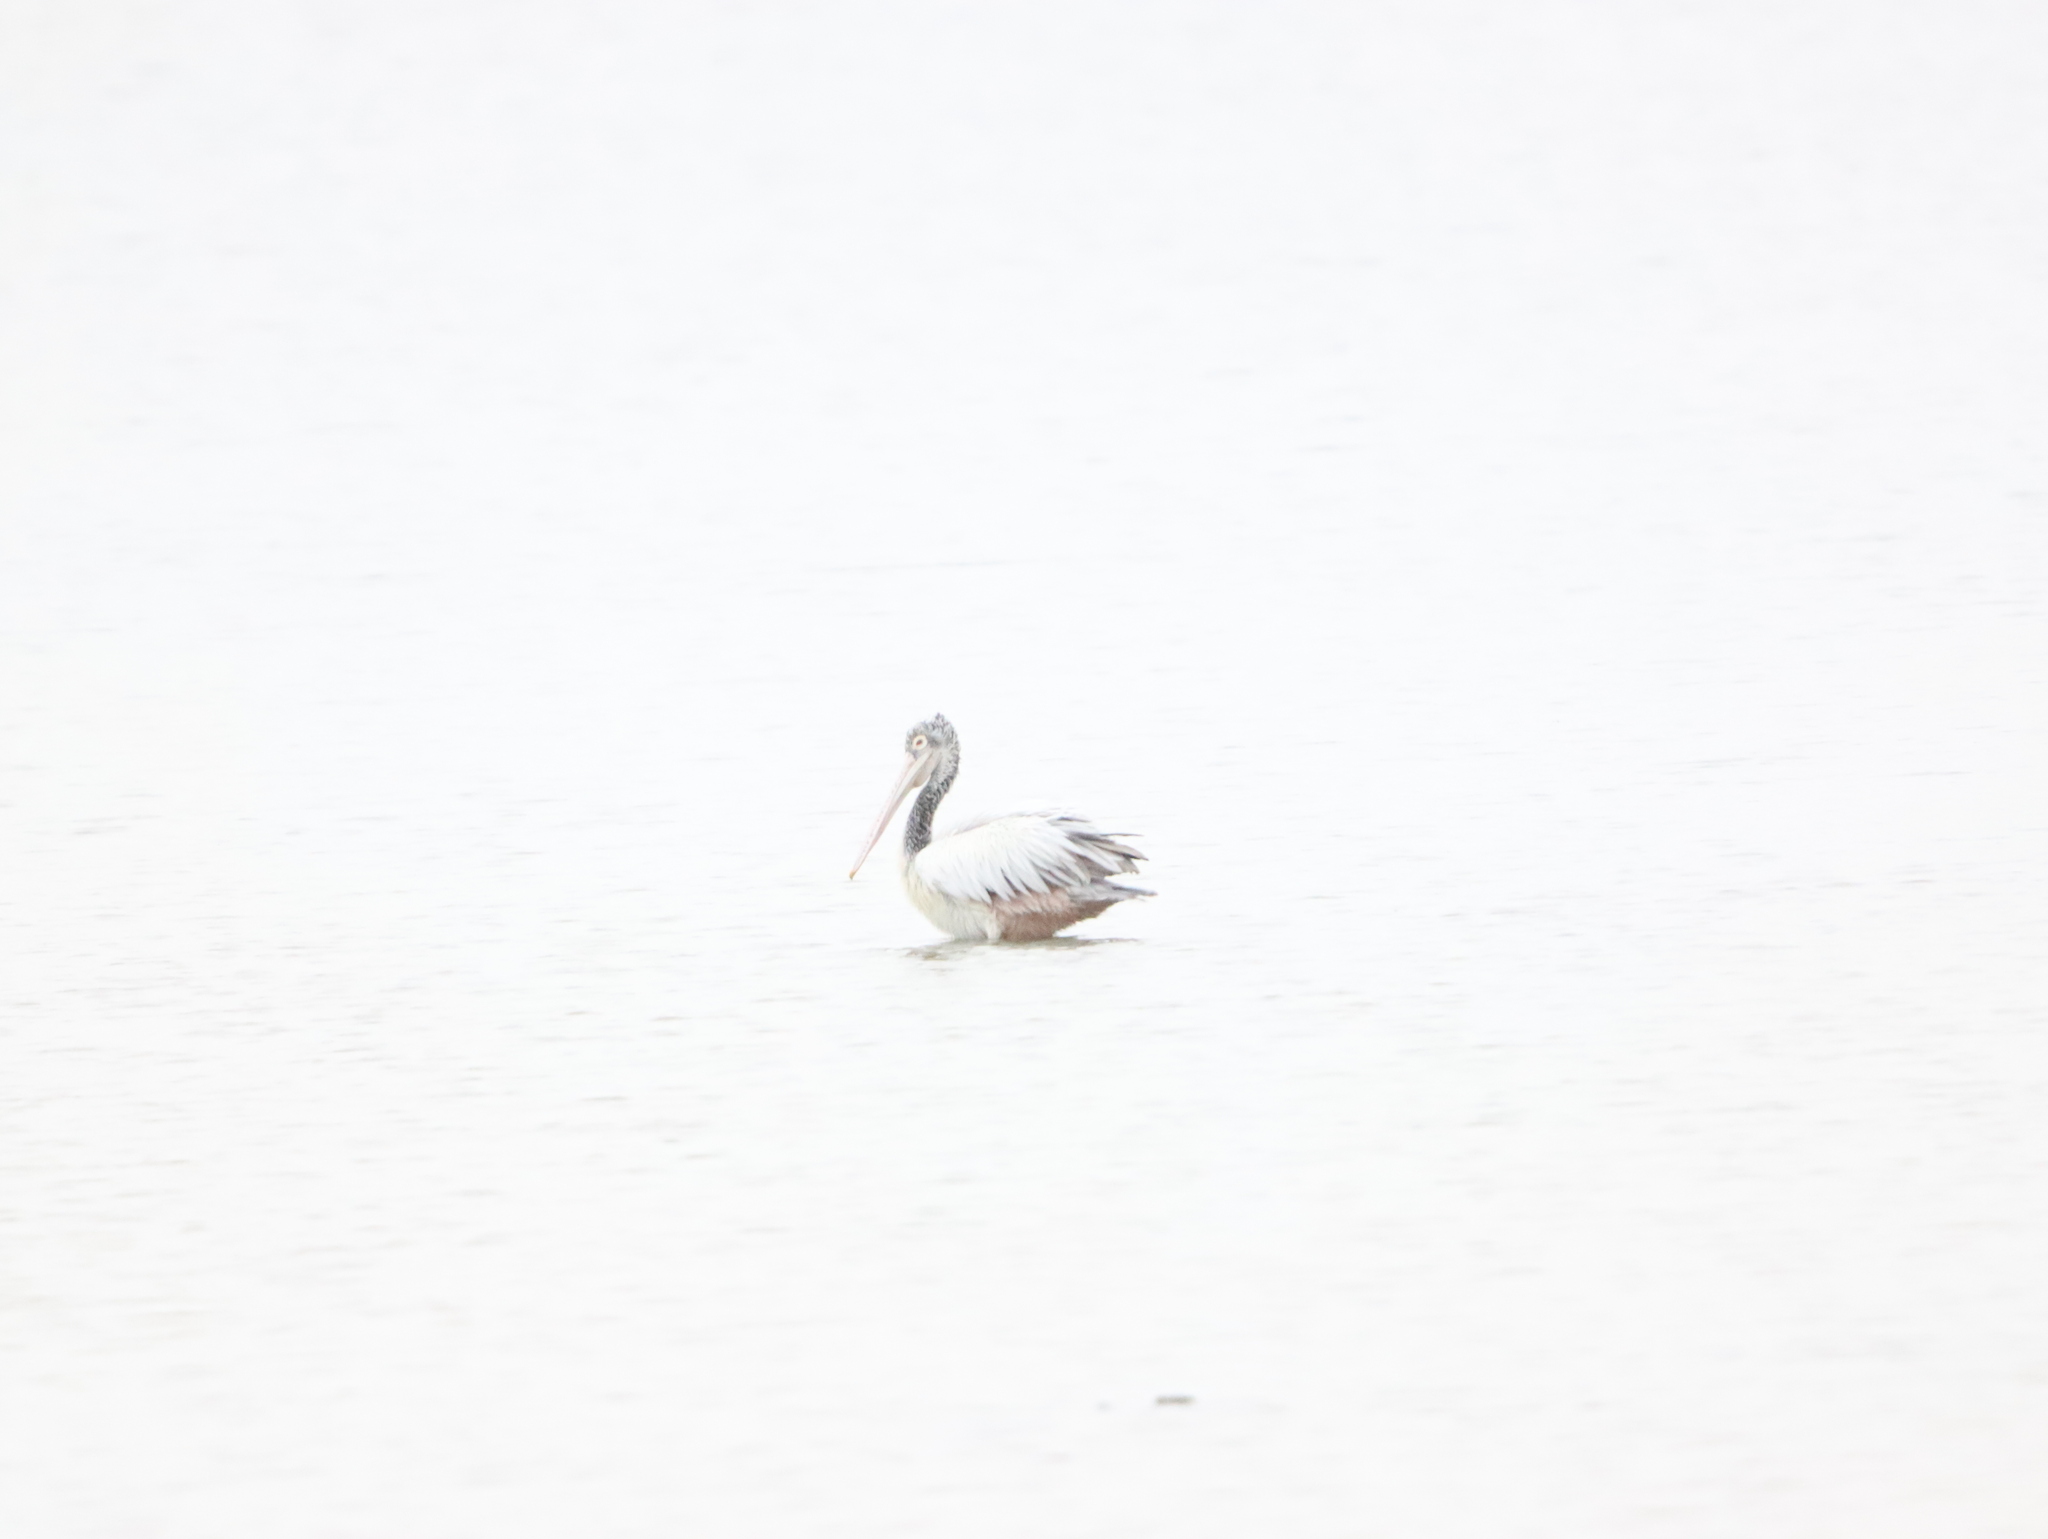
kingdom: Animalia
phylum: Chordata
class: Aves
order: Pelecaniformes
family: Pelecanidae
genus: Pelecanus
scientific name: Pelecanus philippensis
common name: Spot-billed pelican
